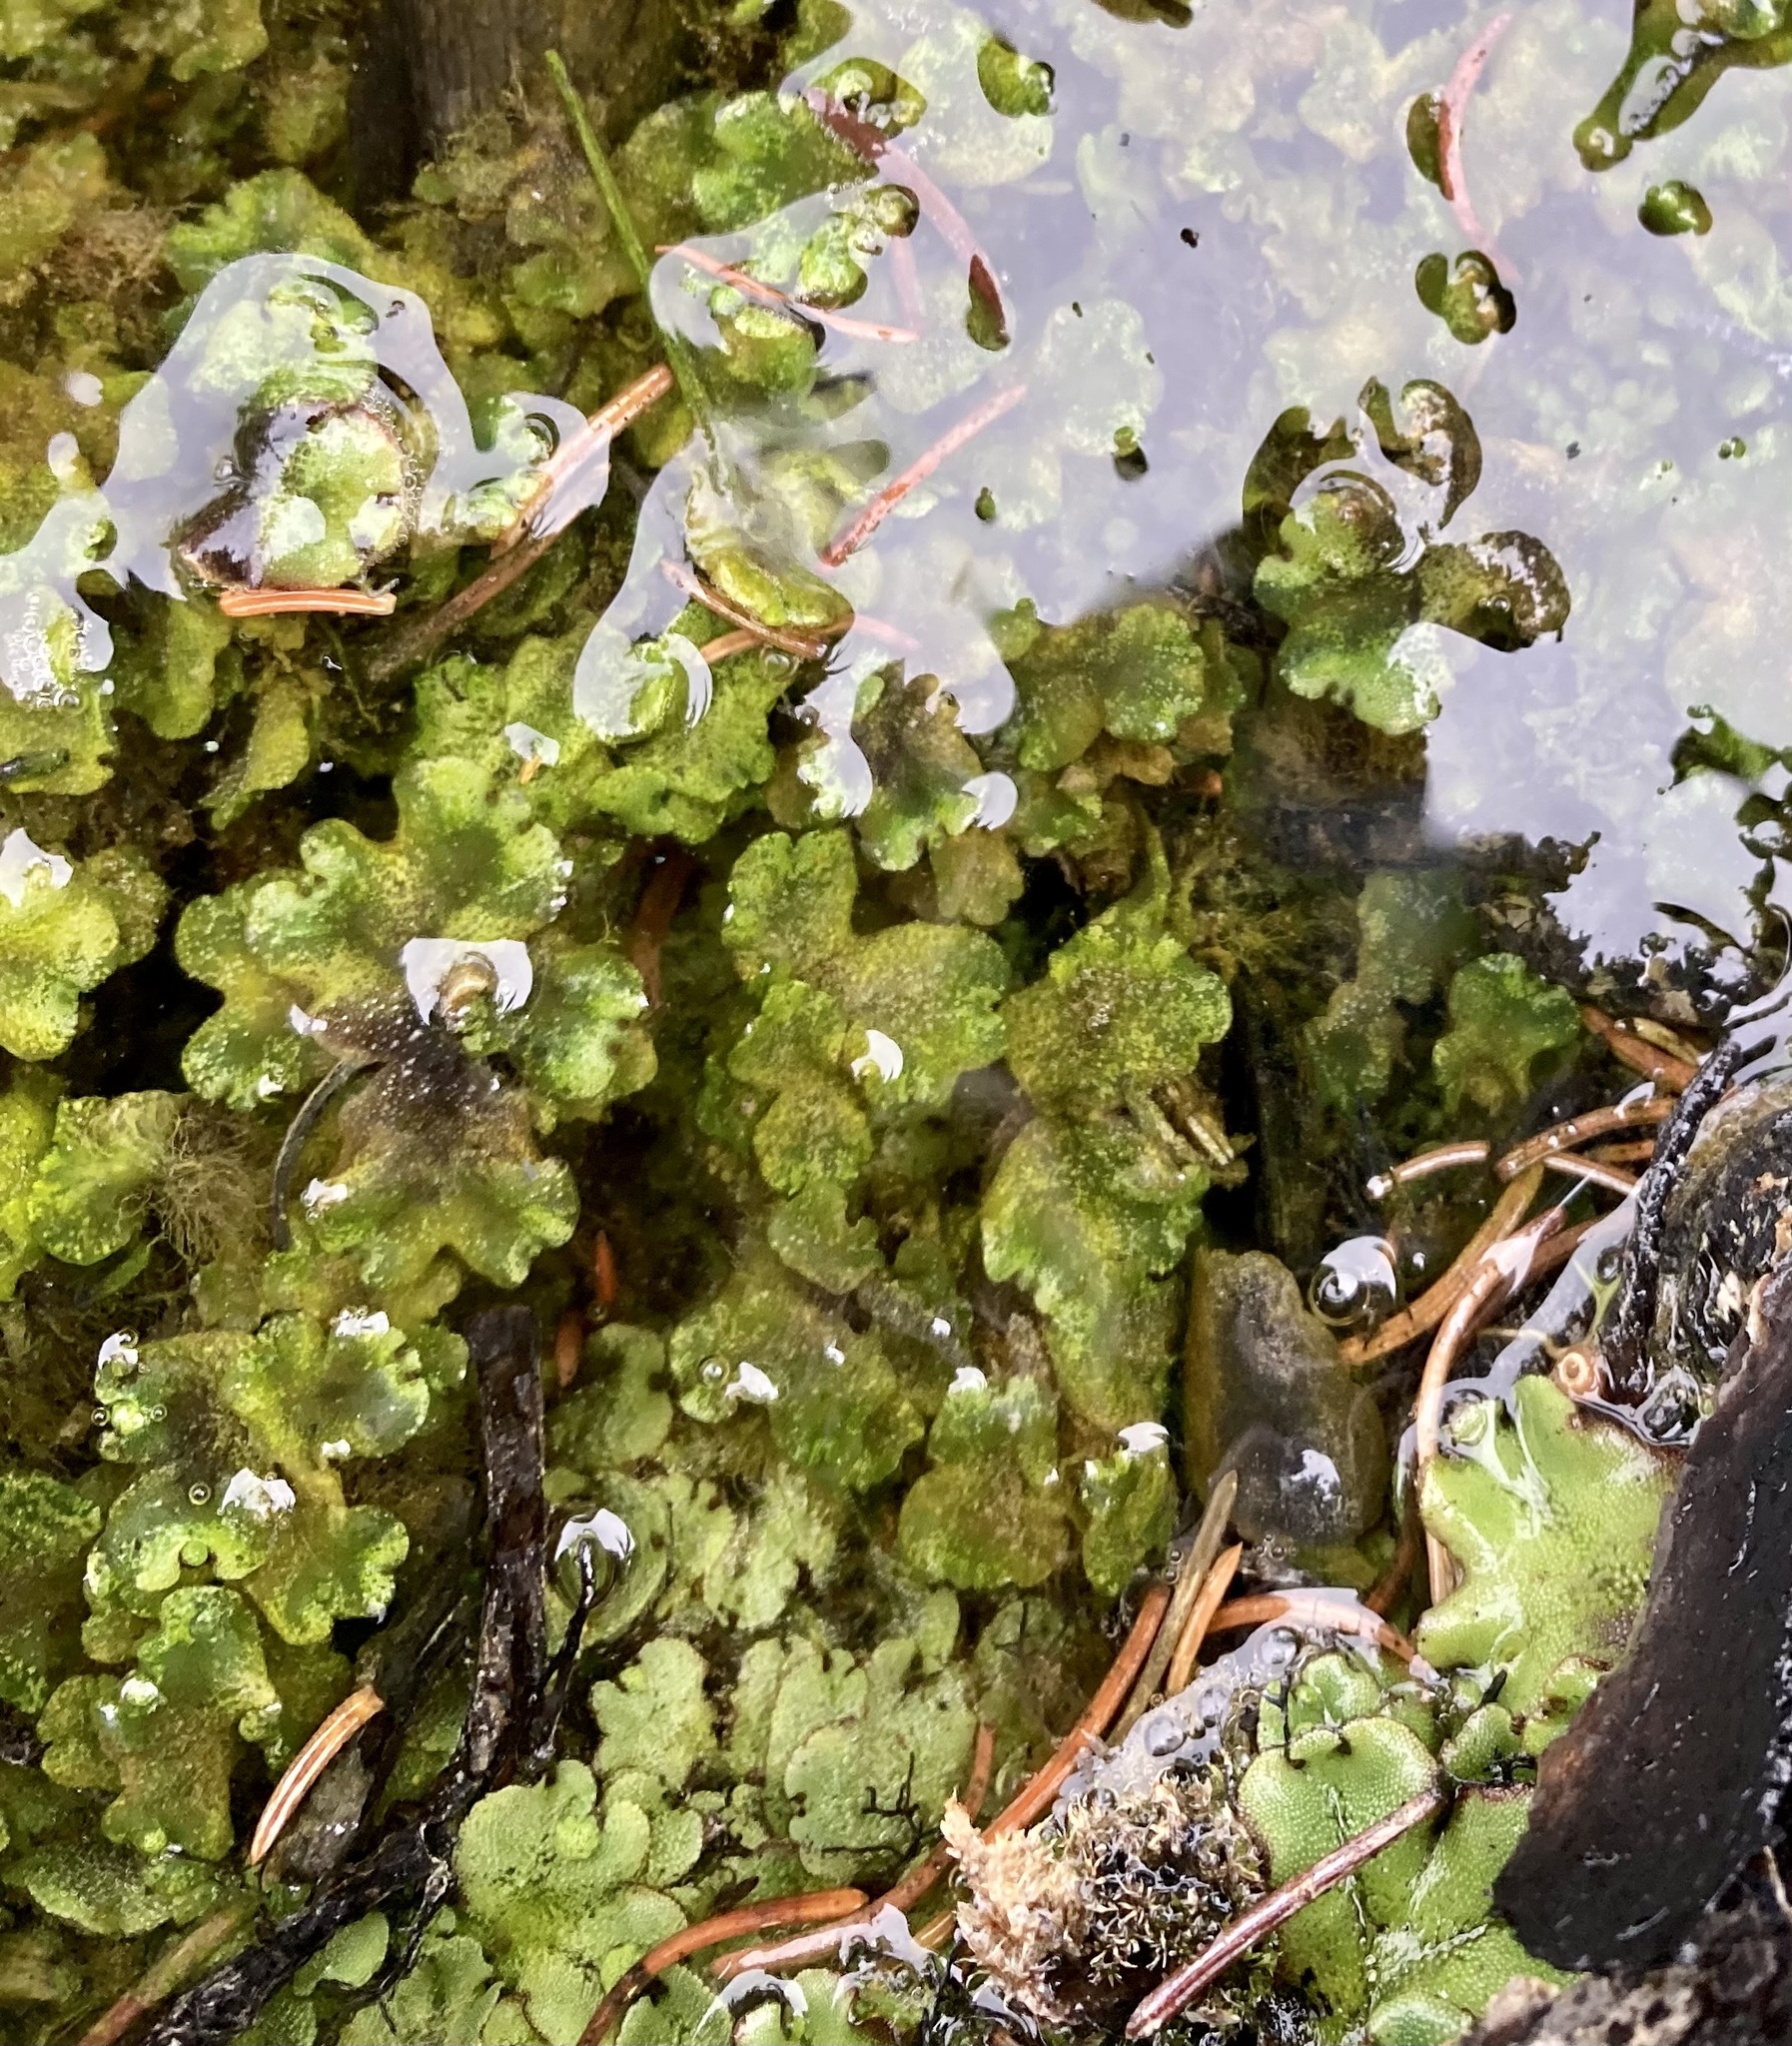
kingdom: Plantae
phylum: Marchantiophyta
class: Marchantiopsida
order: Marchantiales
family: Marchantiaceae
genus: Marchantia
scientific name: Marchantia polymorpha
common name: Common liverwort
